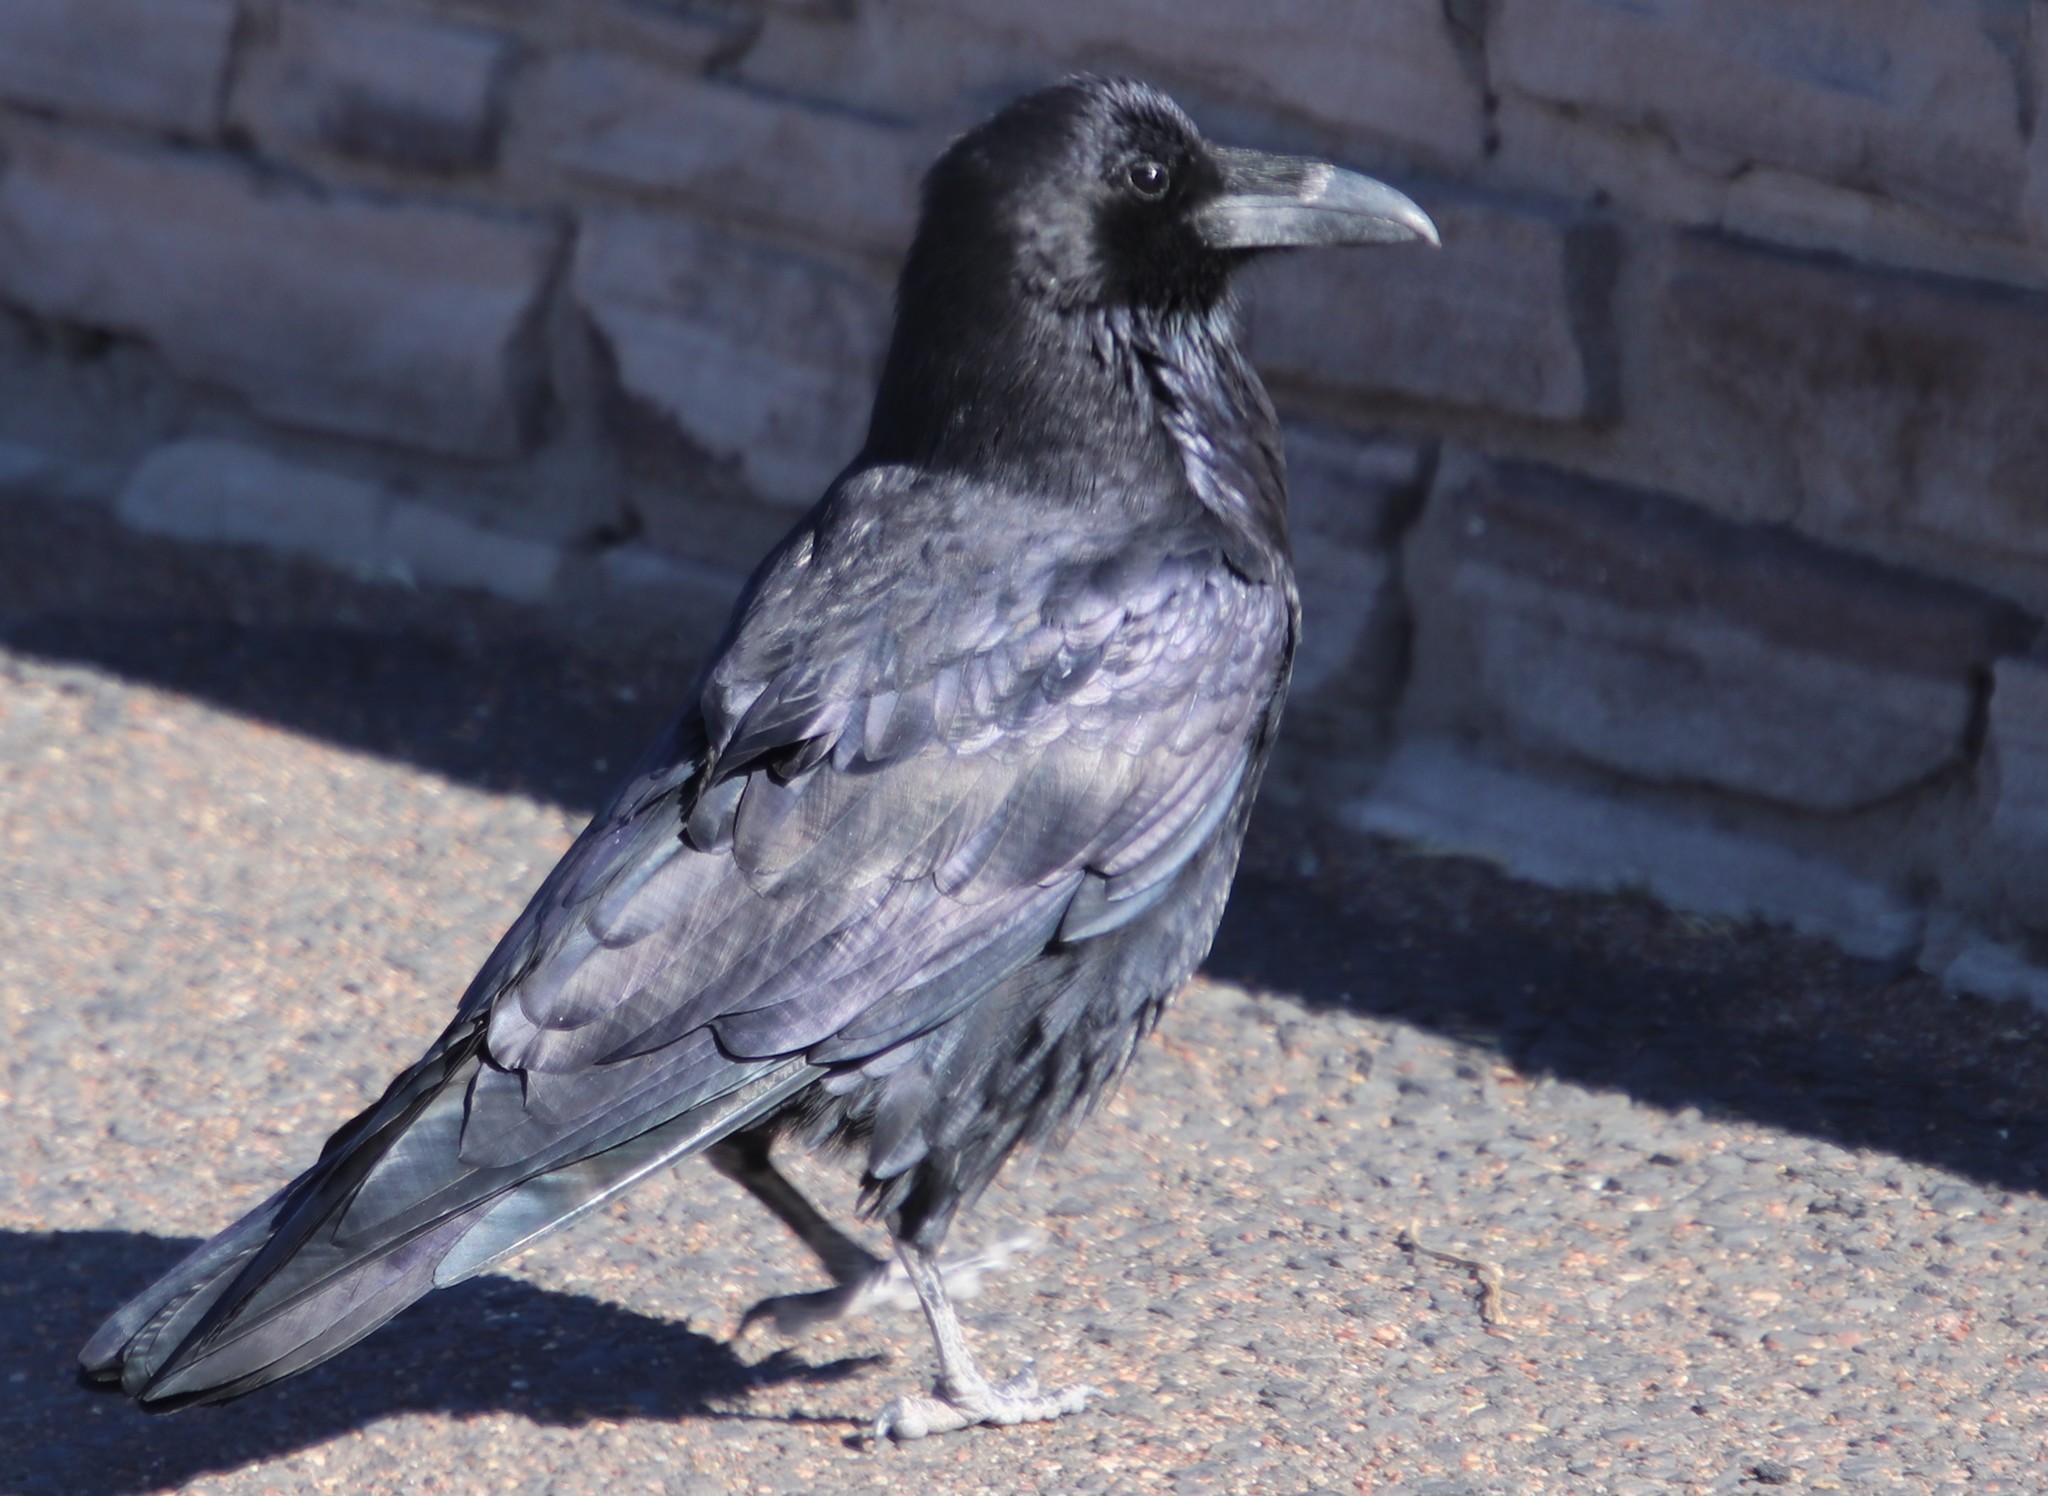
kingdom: Animalia
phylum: Chordata
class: Aves
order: Passeriformes
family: Corvidae
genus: Corvus
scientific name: Corvus corax
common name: Common raven
